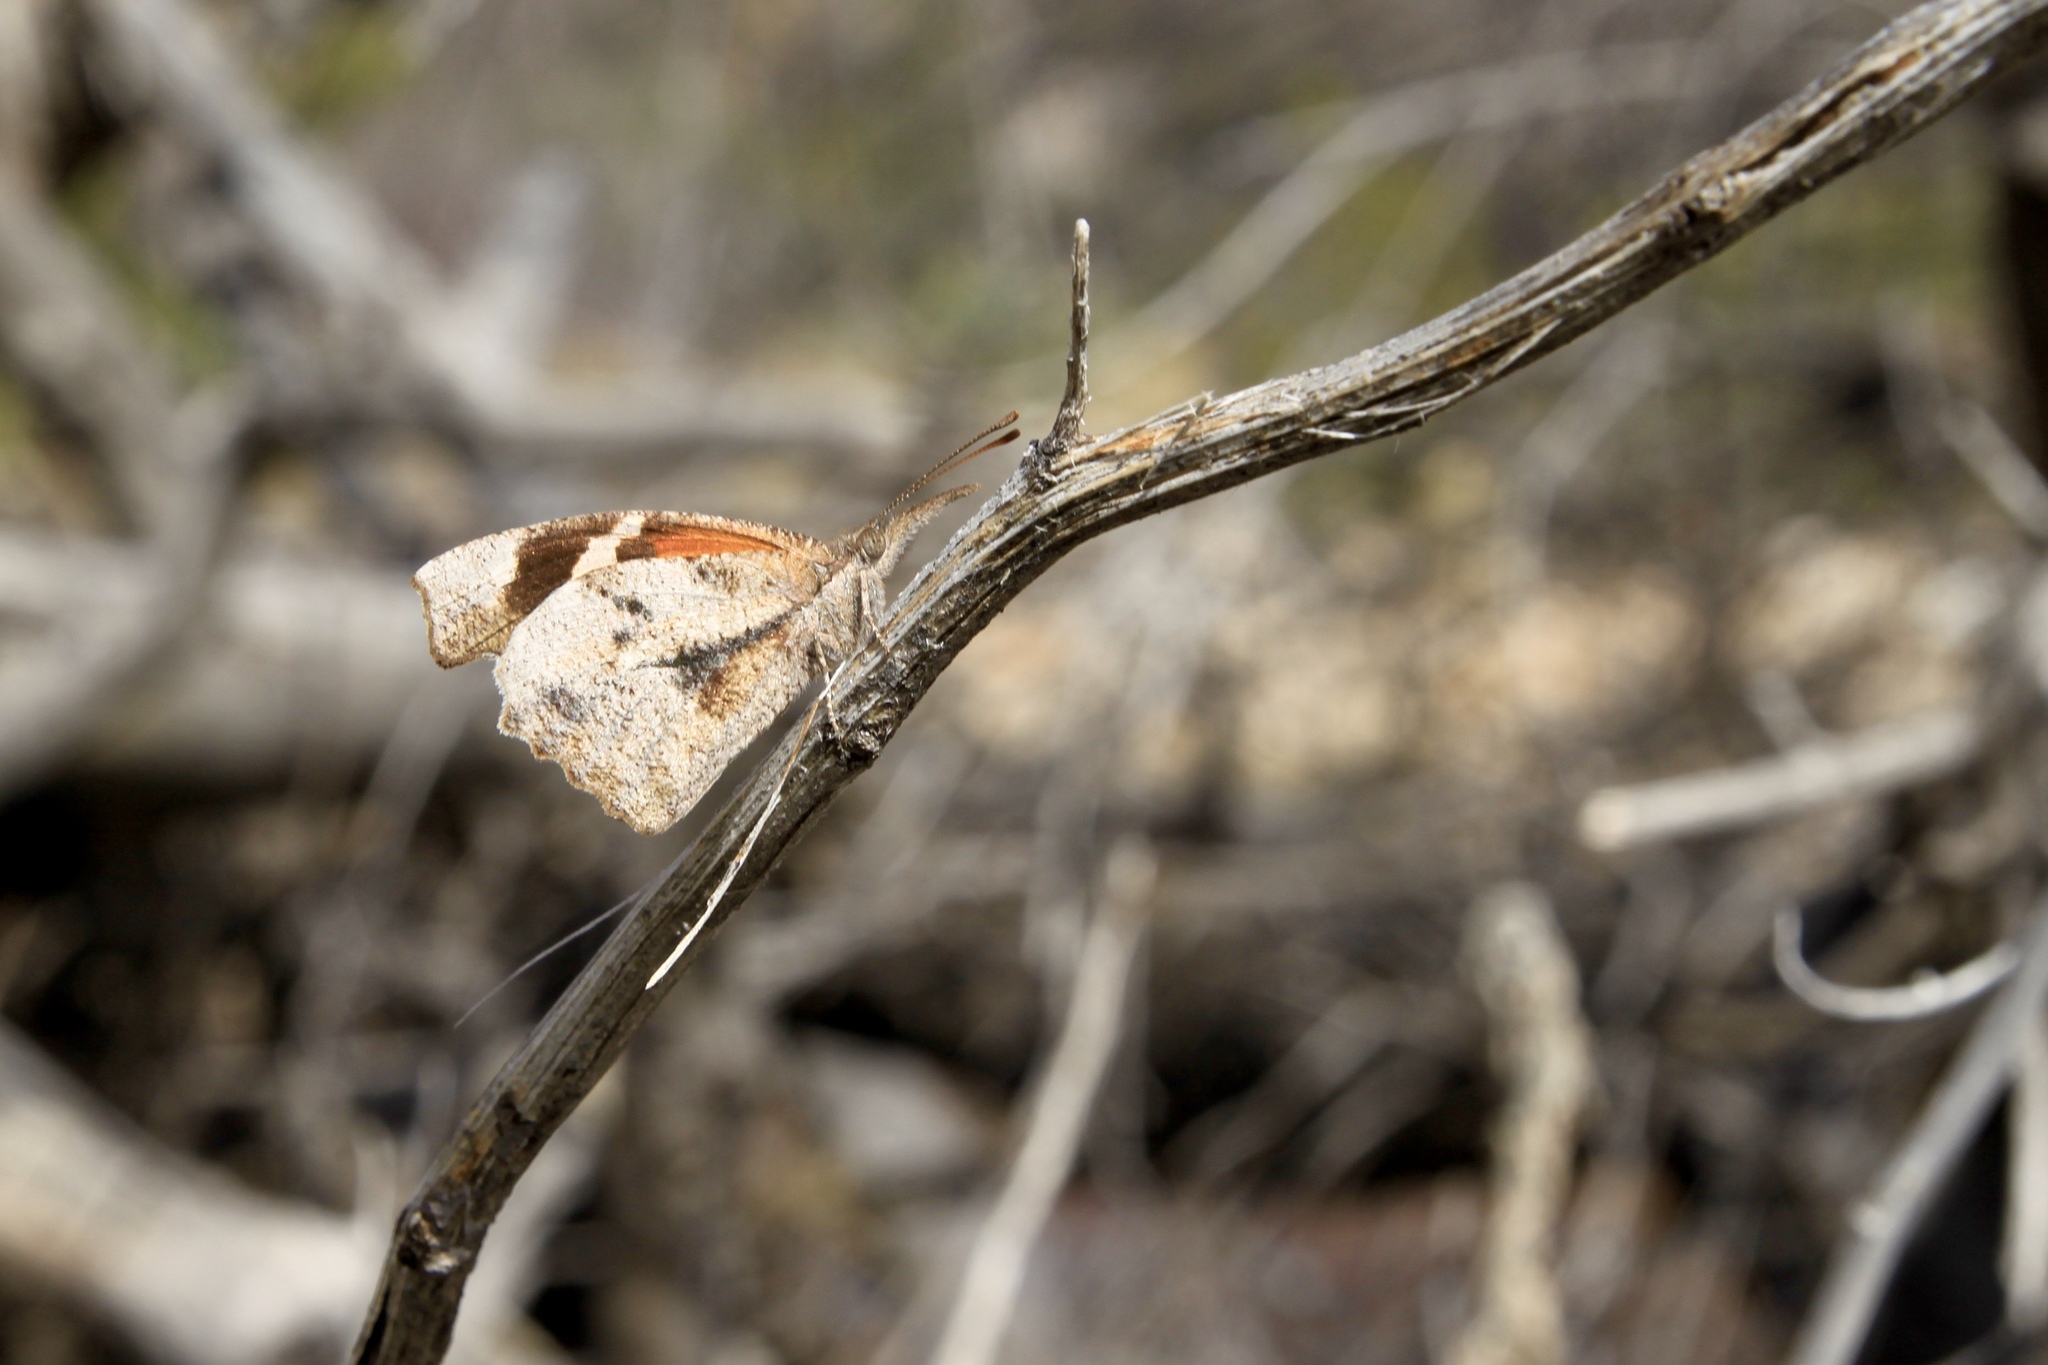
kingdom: Animalia
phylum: Arthropoda
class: Insecta
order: Lepidoptera
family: Nymphalidae
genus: Libytheana
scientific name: Libytheana carinenta
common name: American snout
